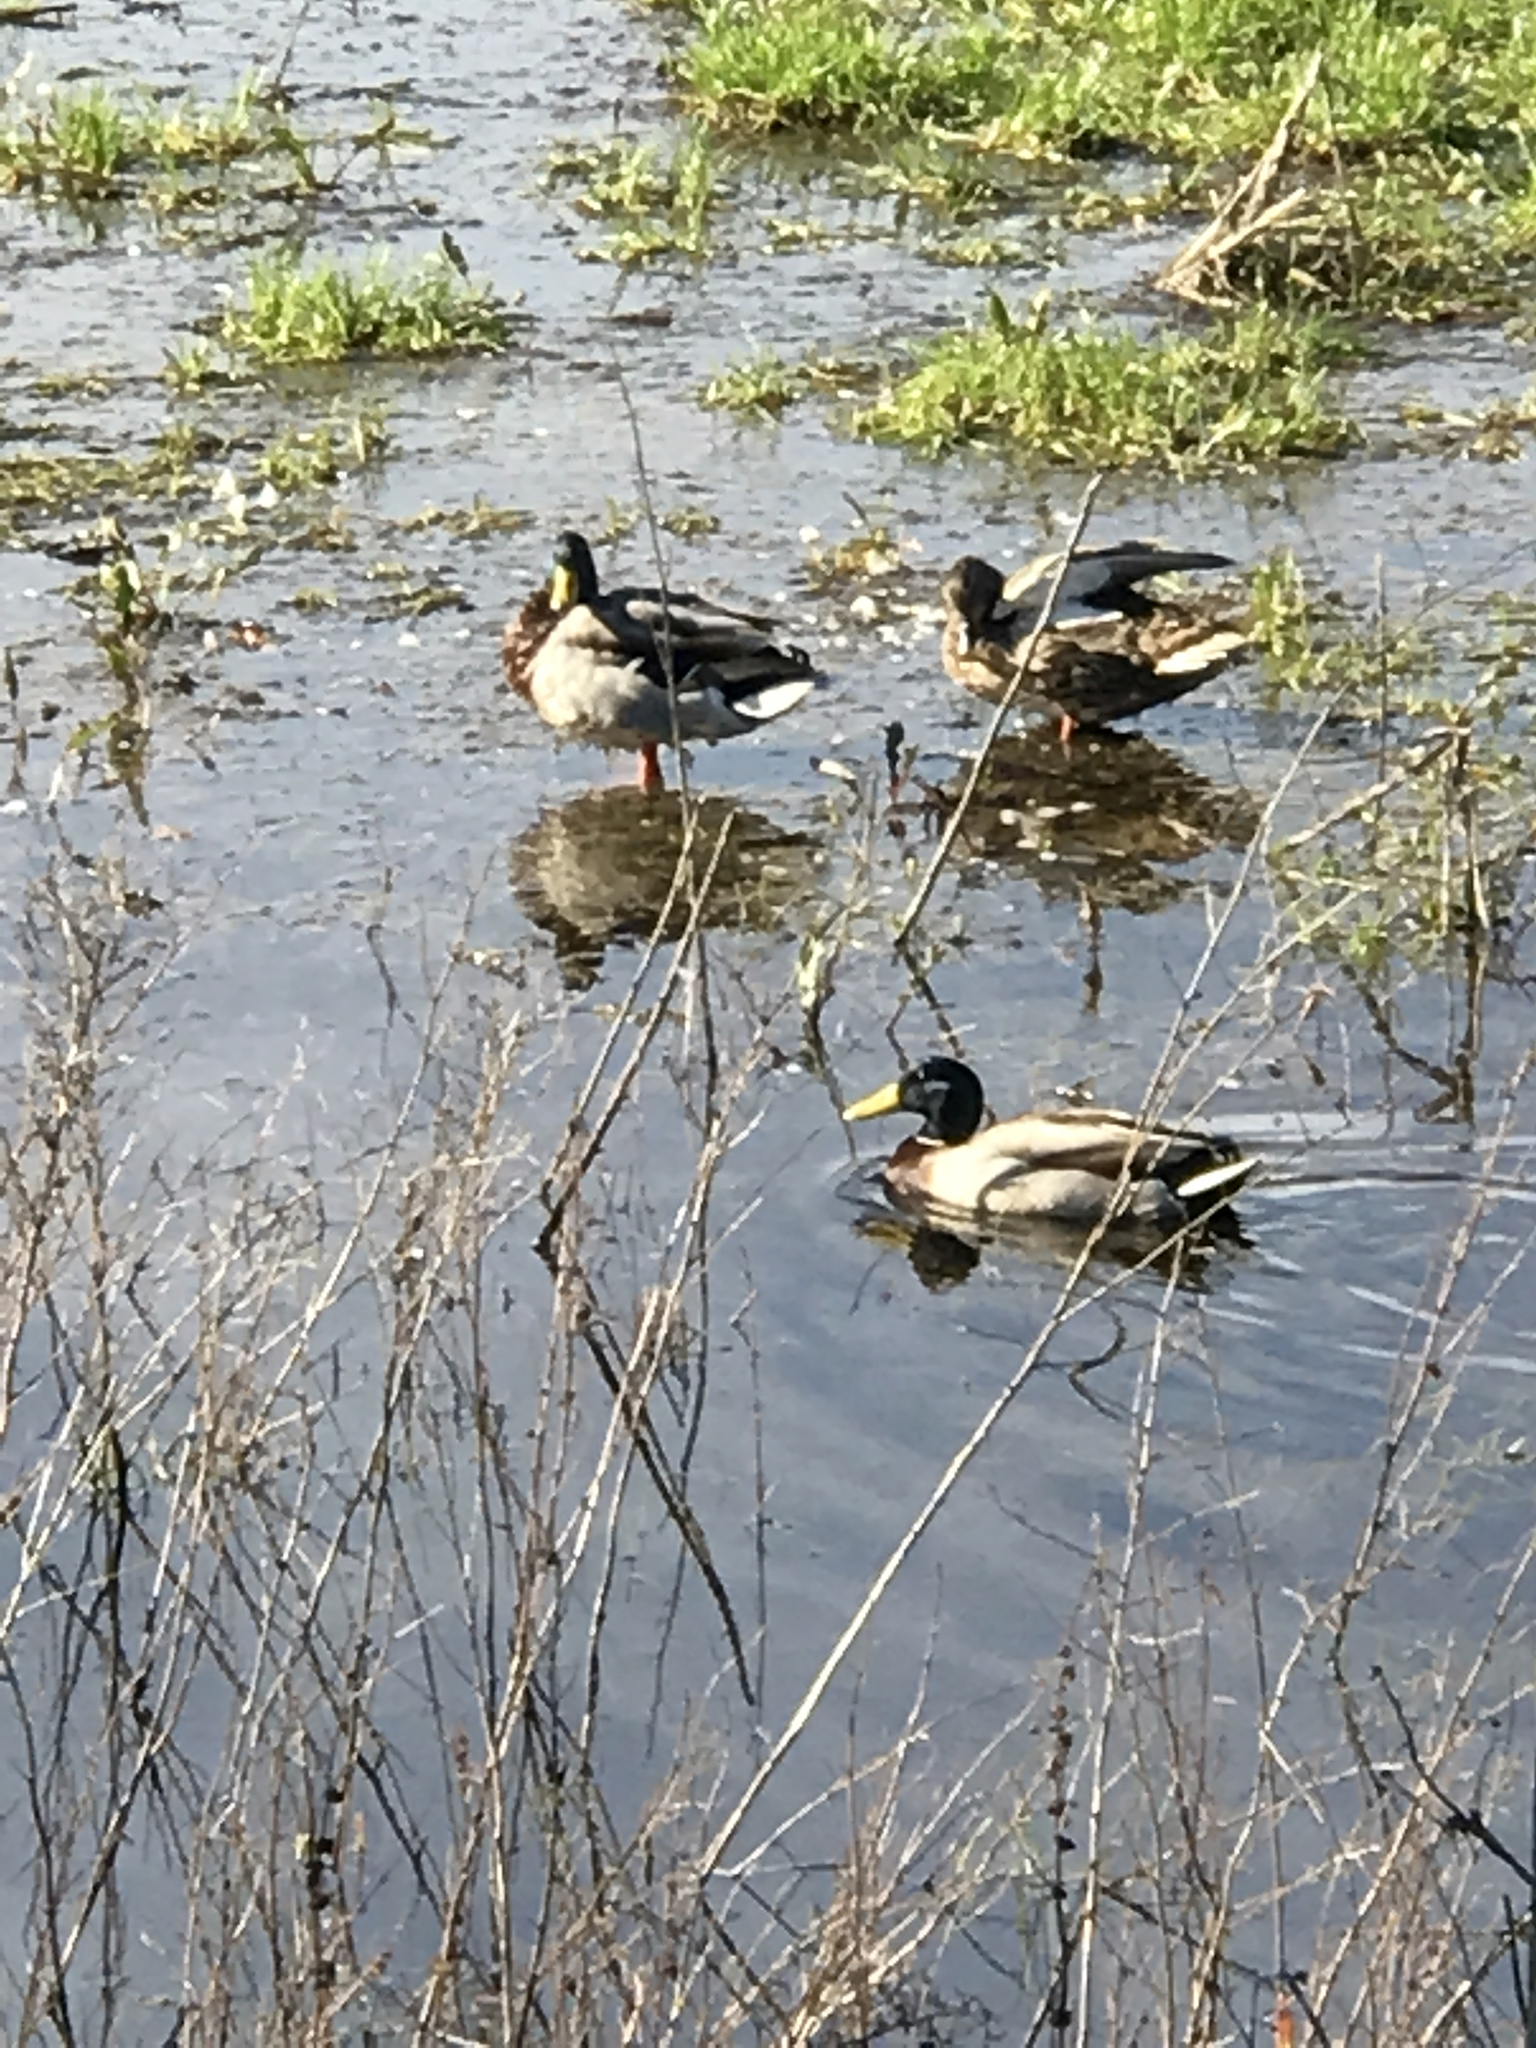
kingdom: Animalia
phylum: Chordata
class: Aves
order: Anseriformes
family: Anatidae
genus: Anas
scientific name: Anas platyrhynchos
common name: Mallard
